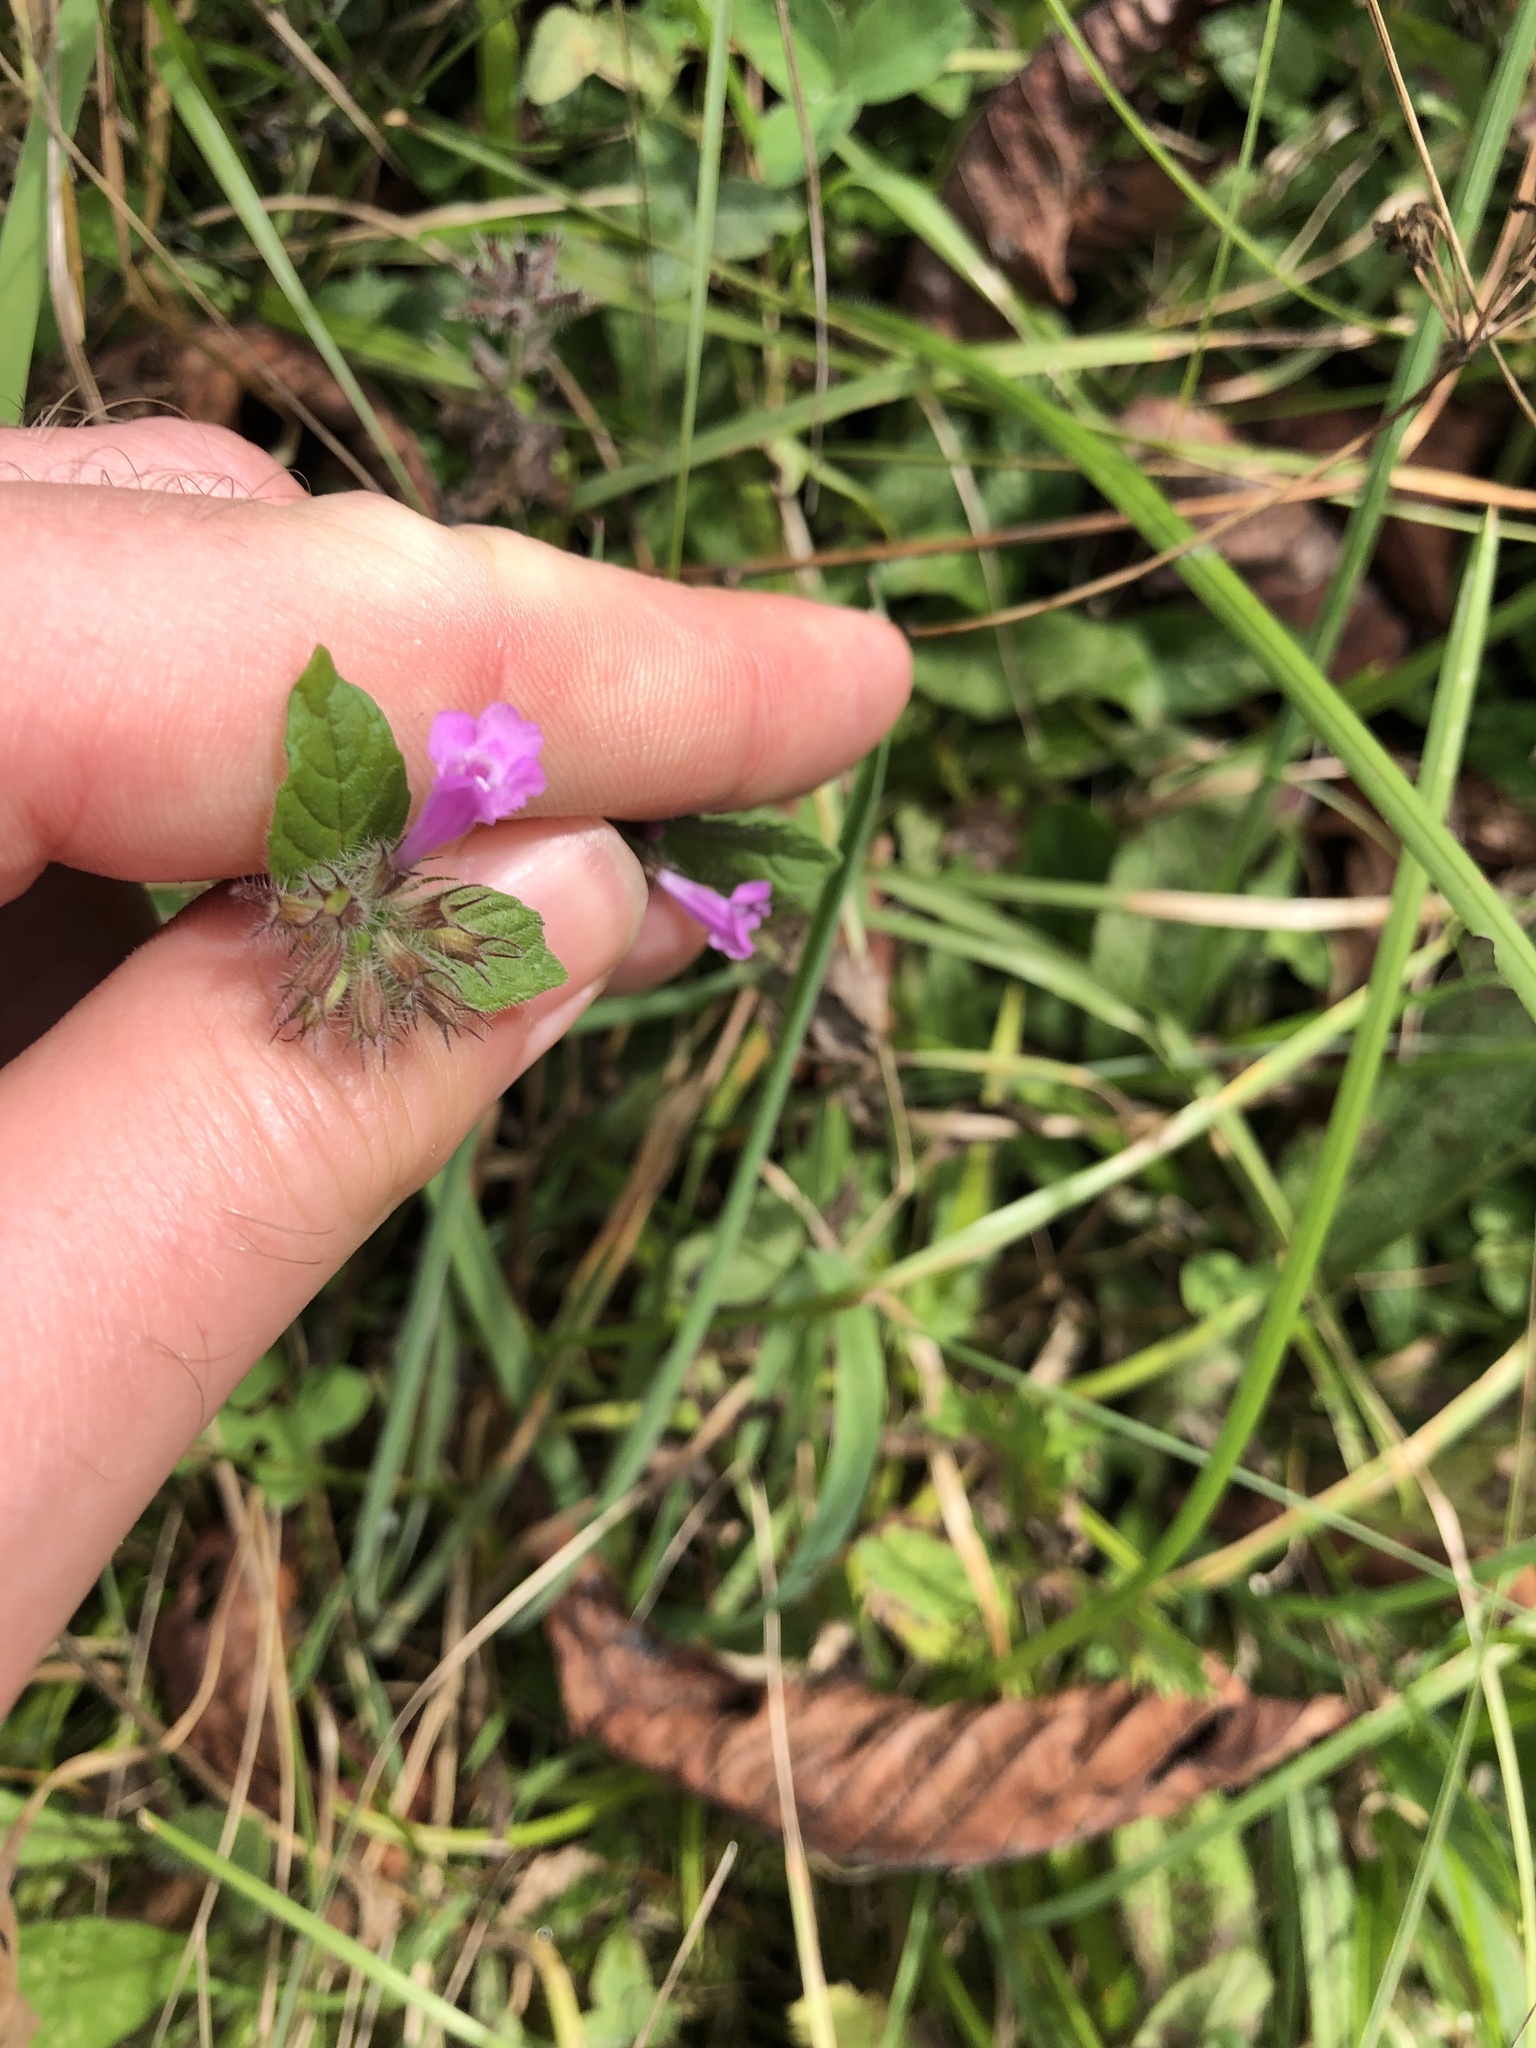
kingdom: Plantae
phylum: Tracheophyta
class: Magnoliopsida
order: Lamiales
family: Lamiaceae
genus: Clinopodium
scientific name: Clinopodium vulgare
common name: Wild basil
